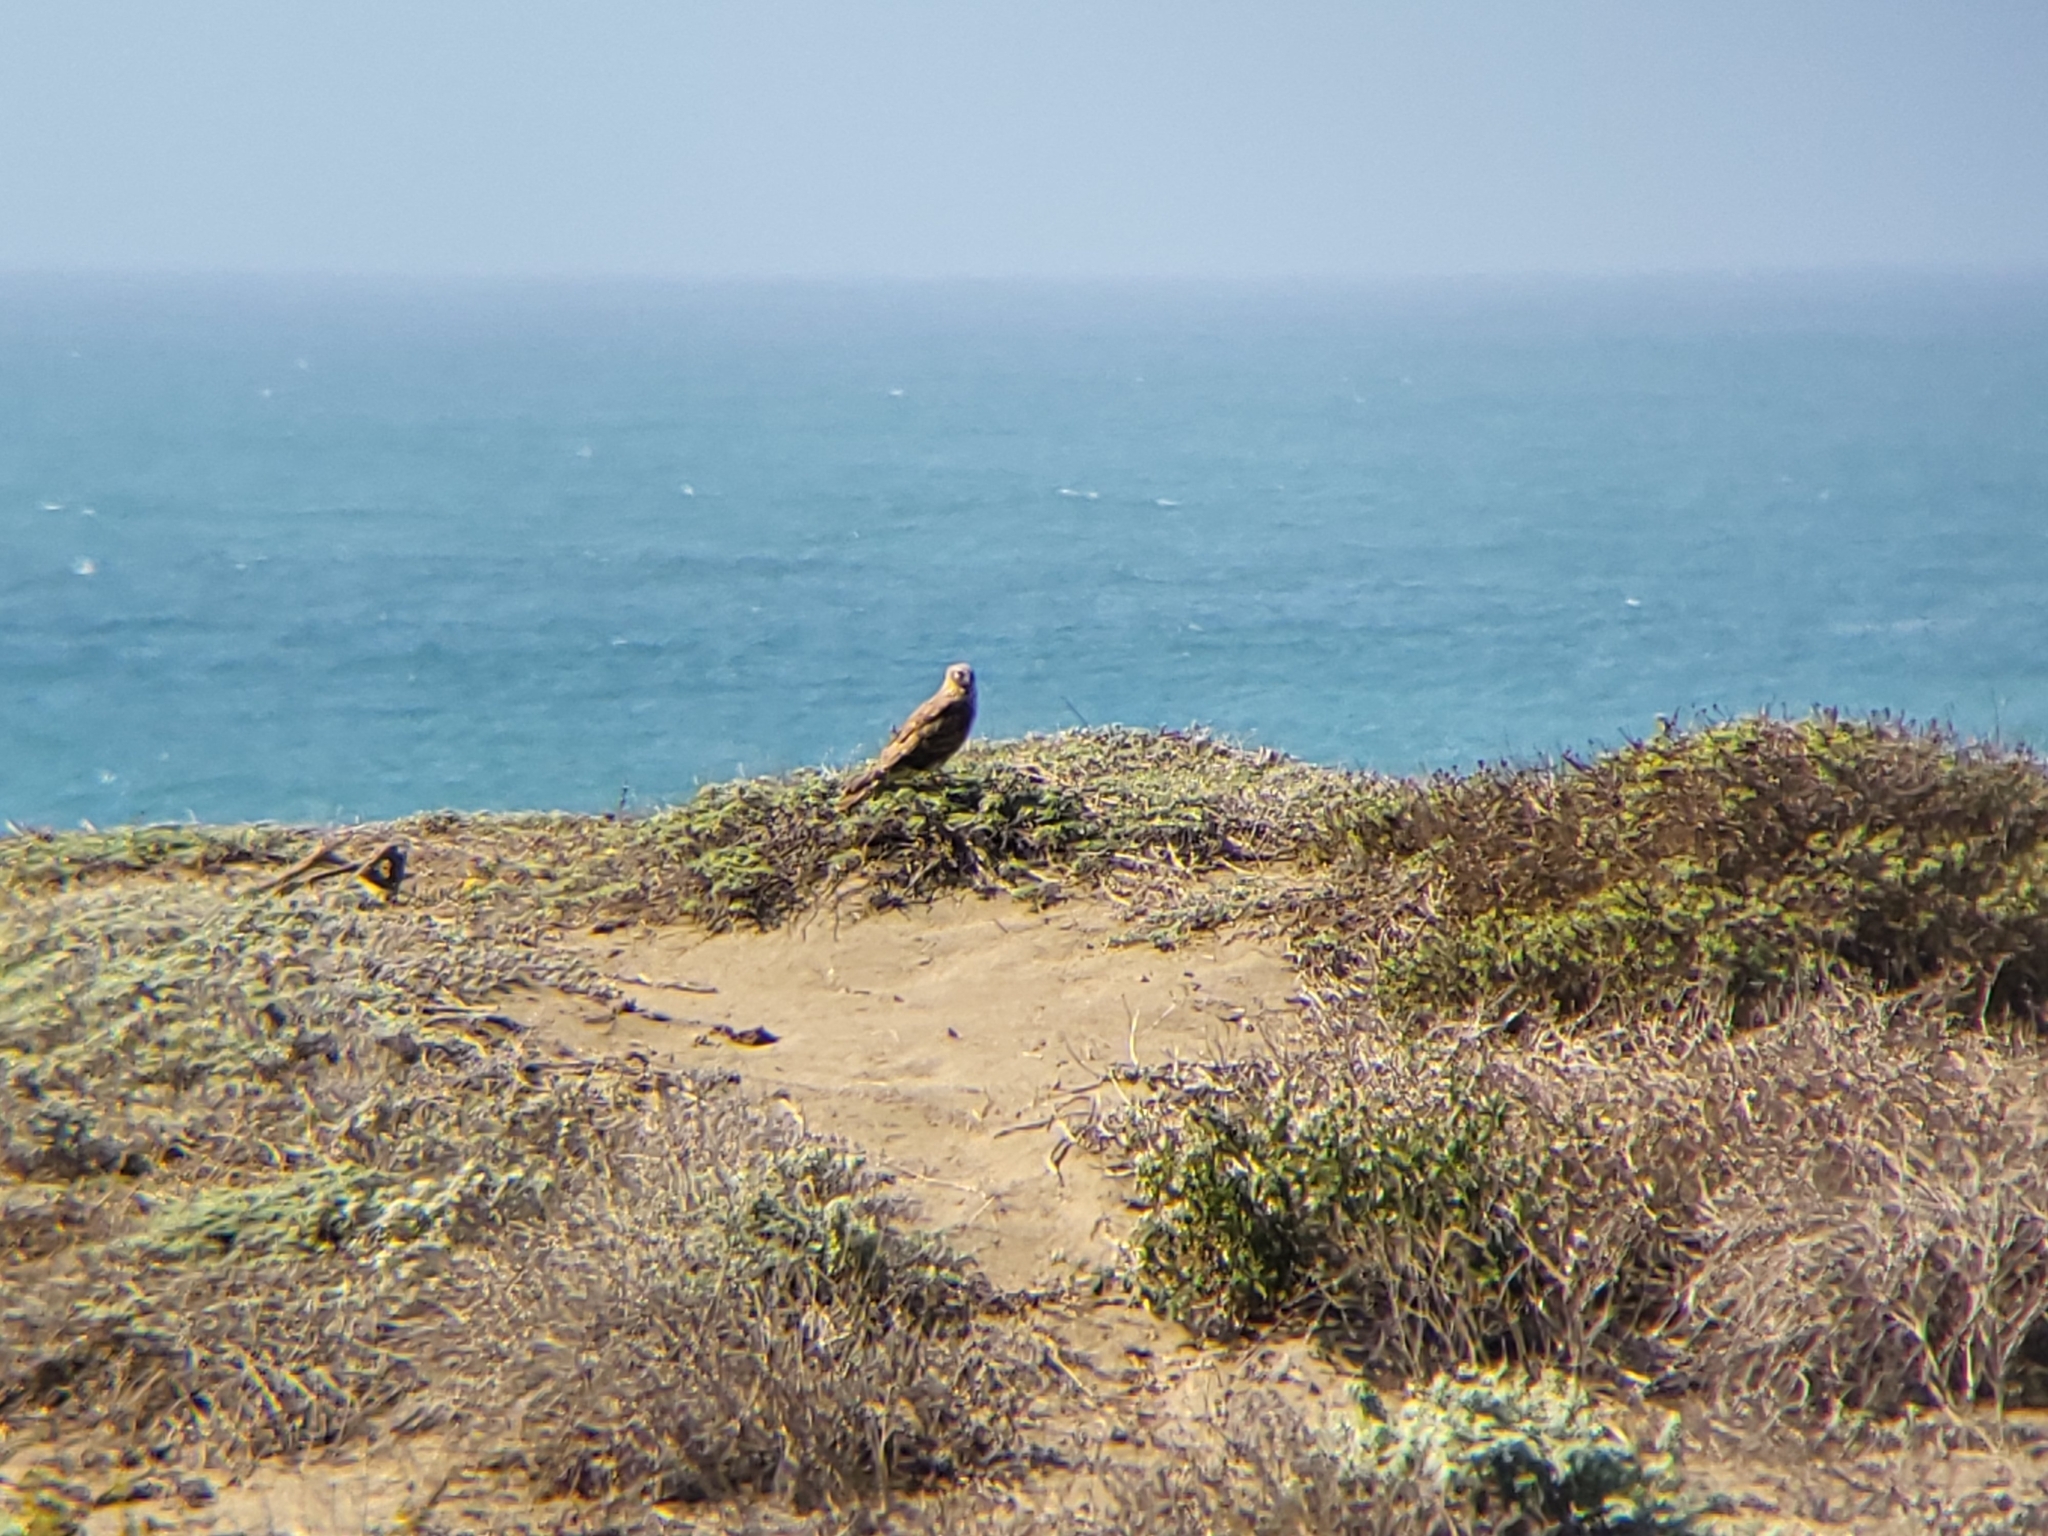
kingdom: Animalia
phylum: Chordata
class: Aves
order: Accipitriformes
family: Accipitridae
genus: Circus
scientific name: Circus cyaneus
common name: Hen harrier
